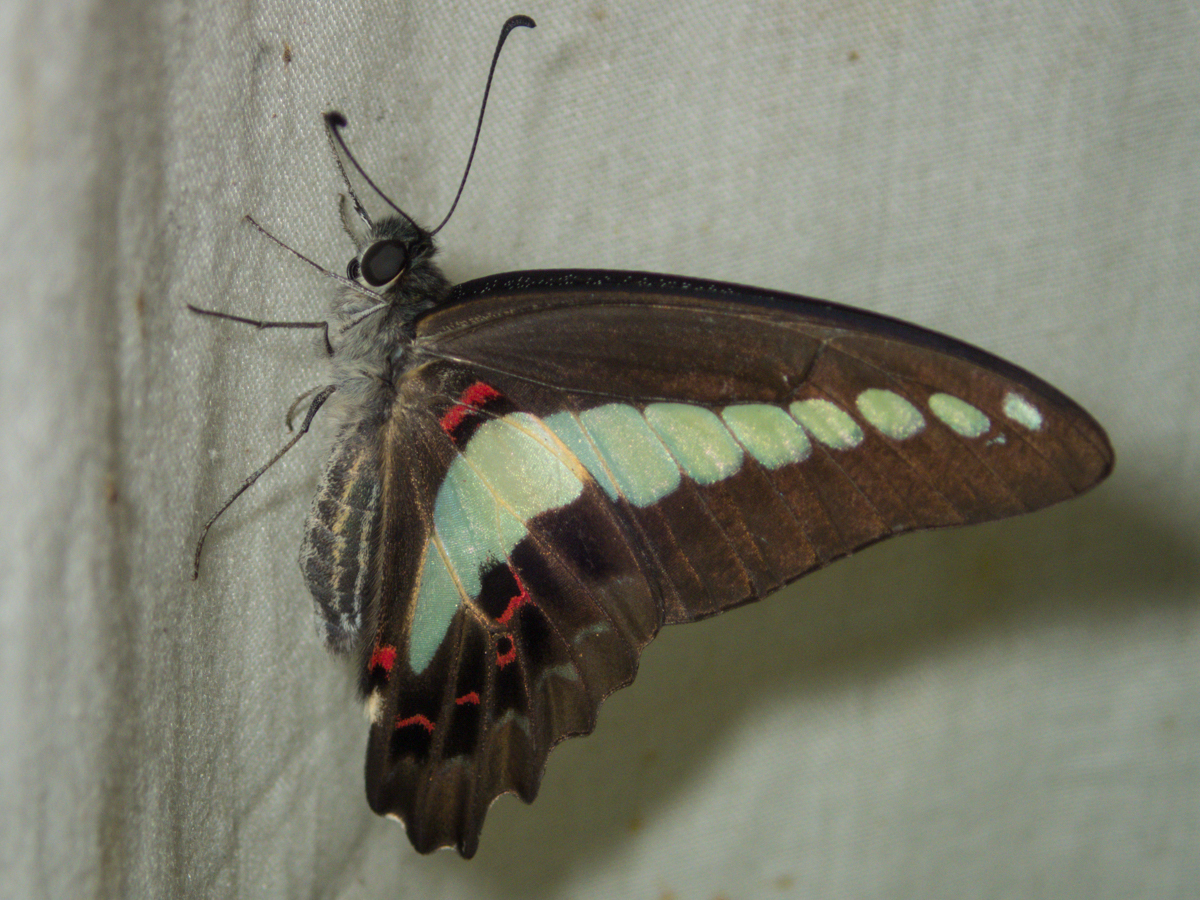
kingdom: Fungi
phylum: Ascomycota
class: Sordariomycetes
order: Microascales
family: Microascaceae
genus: Graphium
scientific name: Graphium sarpedon
